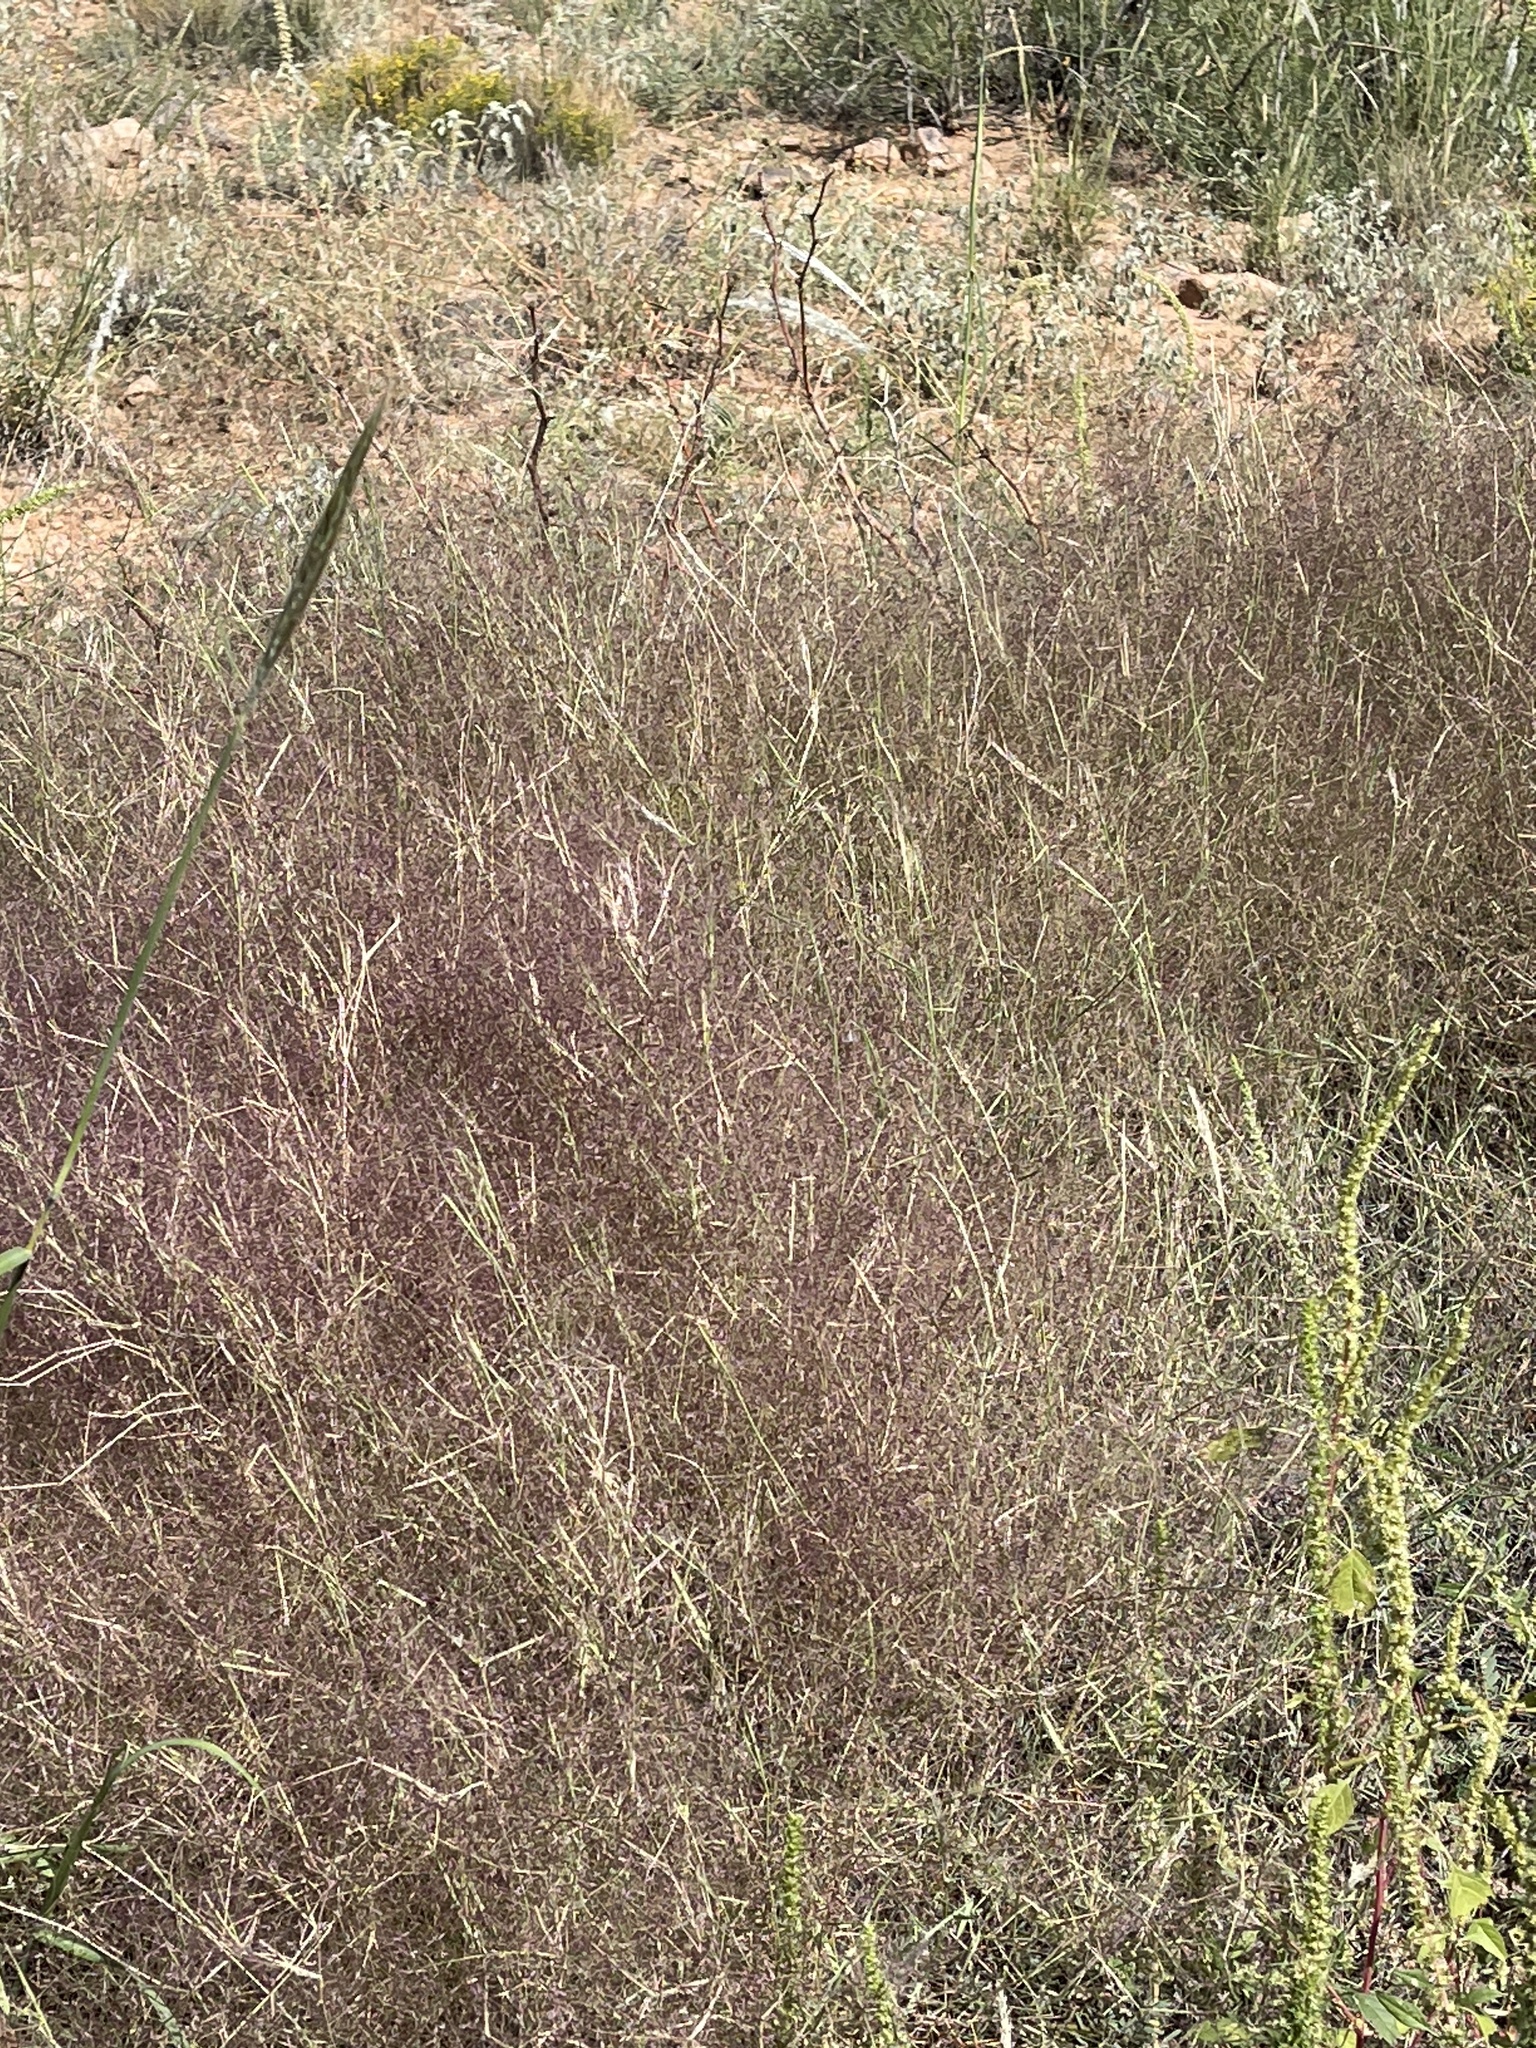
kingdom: Plantae
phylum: Tracheophyta
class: Liliopsida
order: Poales
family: Poaceae
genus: Muhlenbergia
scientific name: Muhlenbergia porteri
